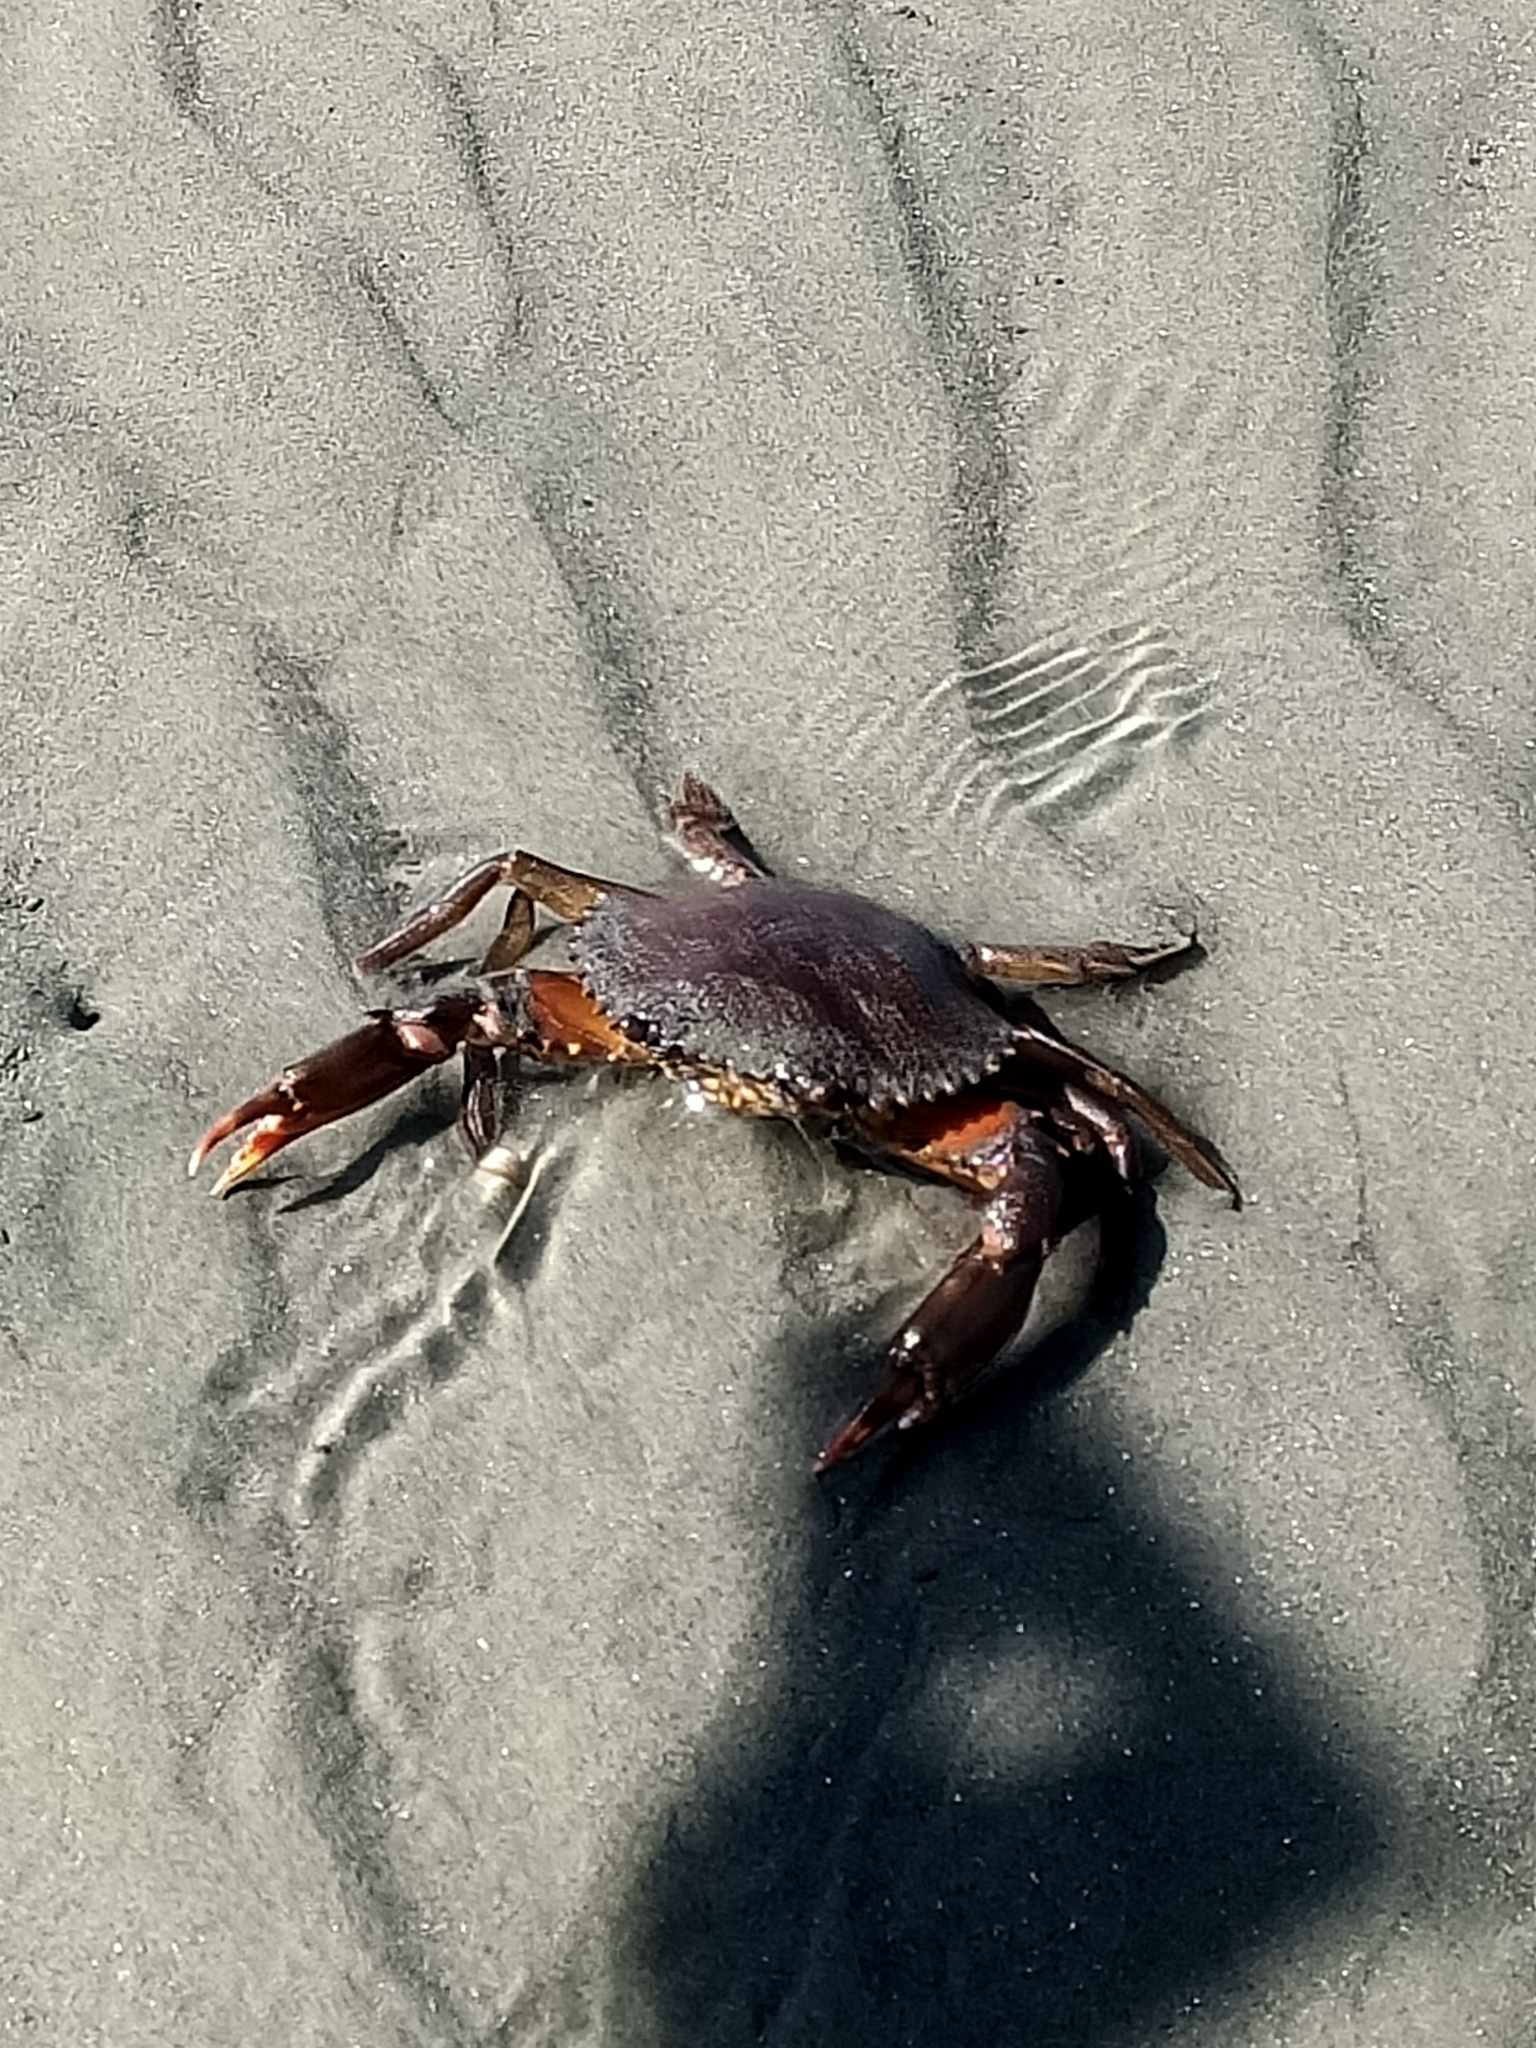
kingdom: Animalia
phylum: Arthropoda
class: Malacostraca
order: Decapoda
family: Portunidae
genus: Scylla
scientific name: Scylla serrata
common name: Giant mud crab
